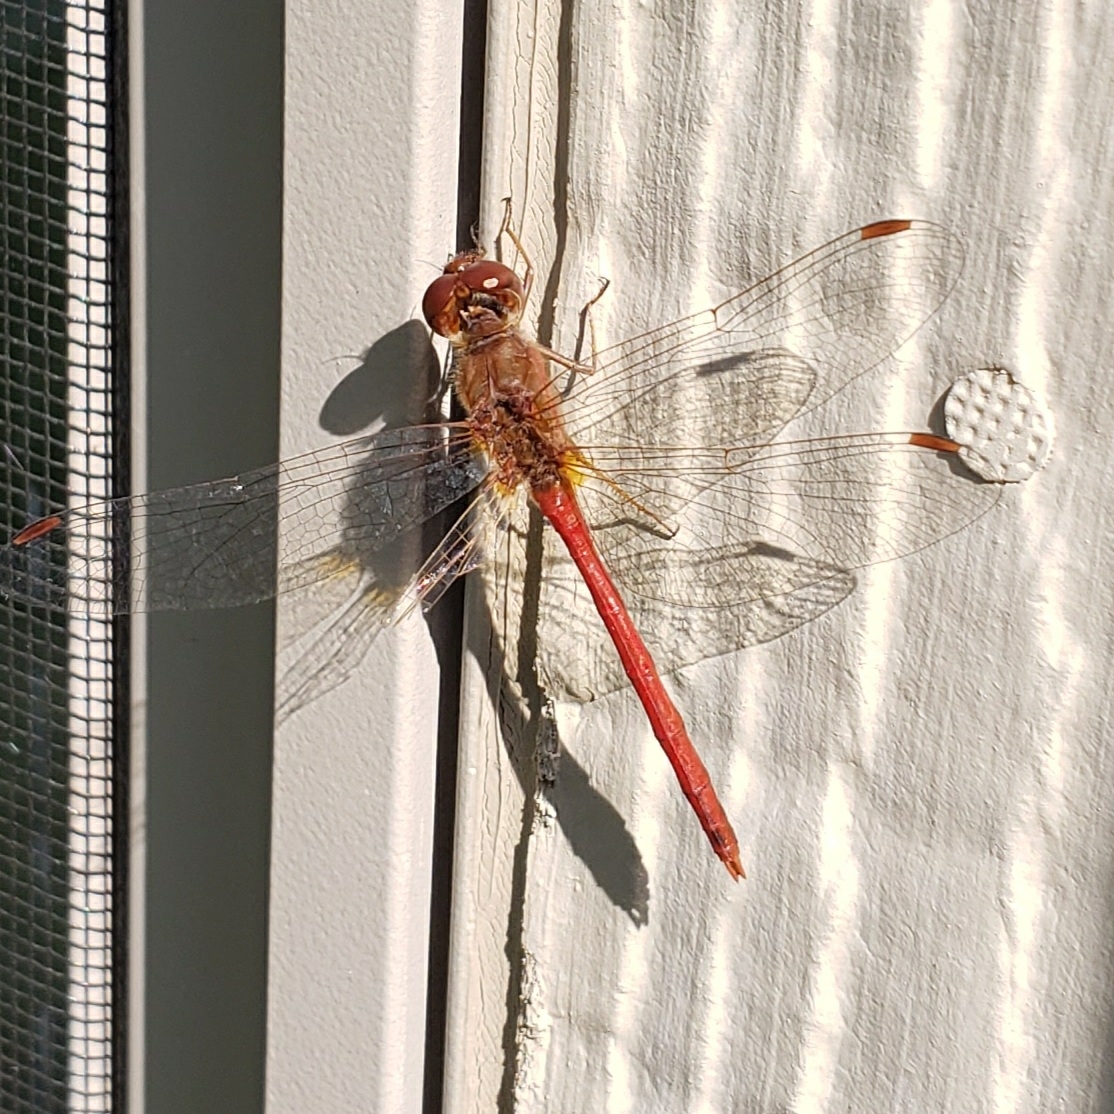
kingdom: Animalia
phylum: Arthropoda
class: Insecta
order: Odonata
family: Libellulidae
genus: Sympetrum
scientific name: Sympetrum vicinum
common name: Autumn meadowhawk
